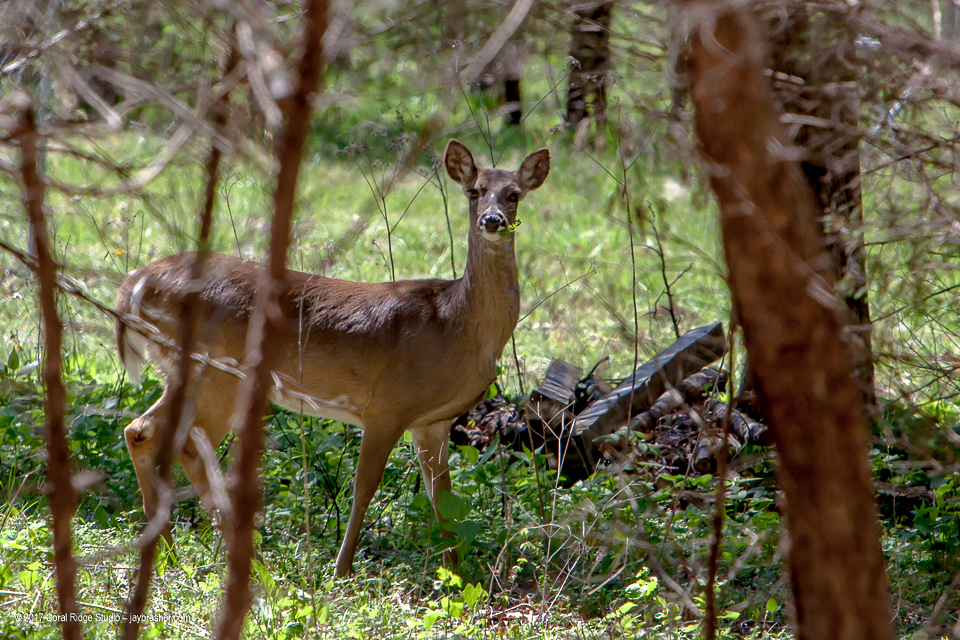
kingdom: Animalia
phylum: Chordata
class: Mammalia
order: Artiodactyla
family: Cervidae
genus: Odocoileus
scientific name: Odocoileus virginianus
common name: White-tailed deer
